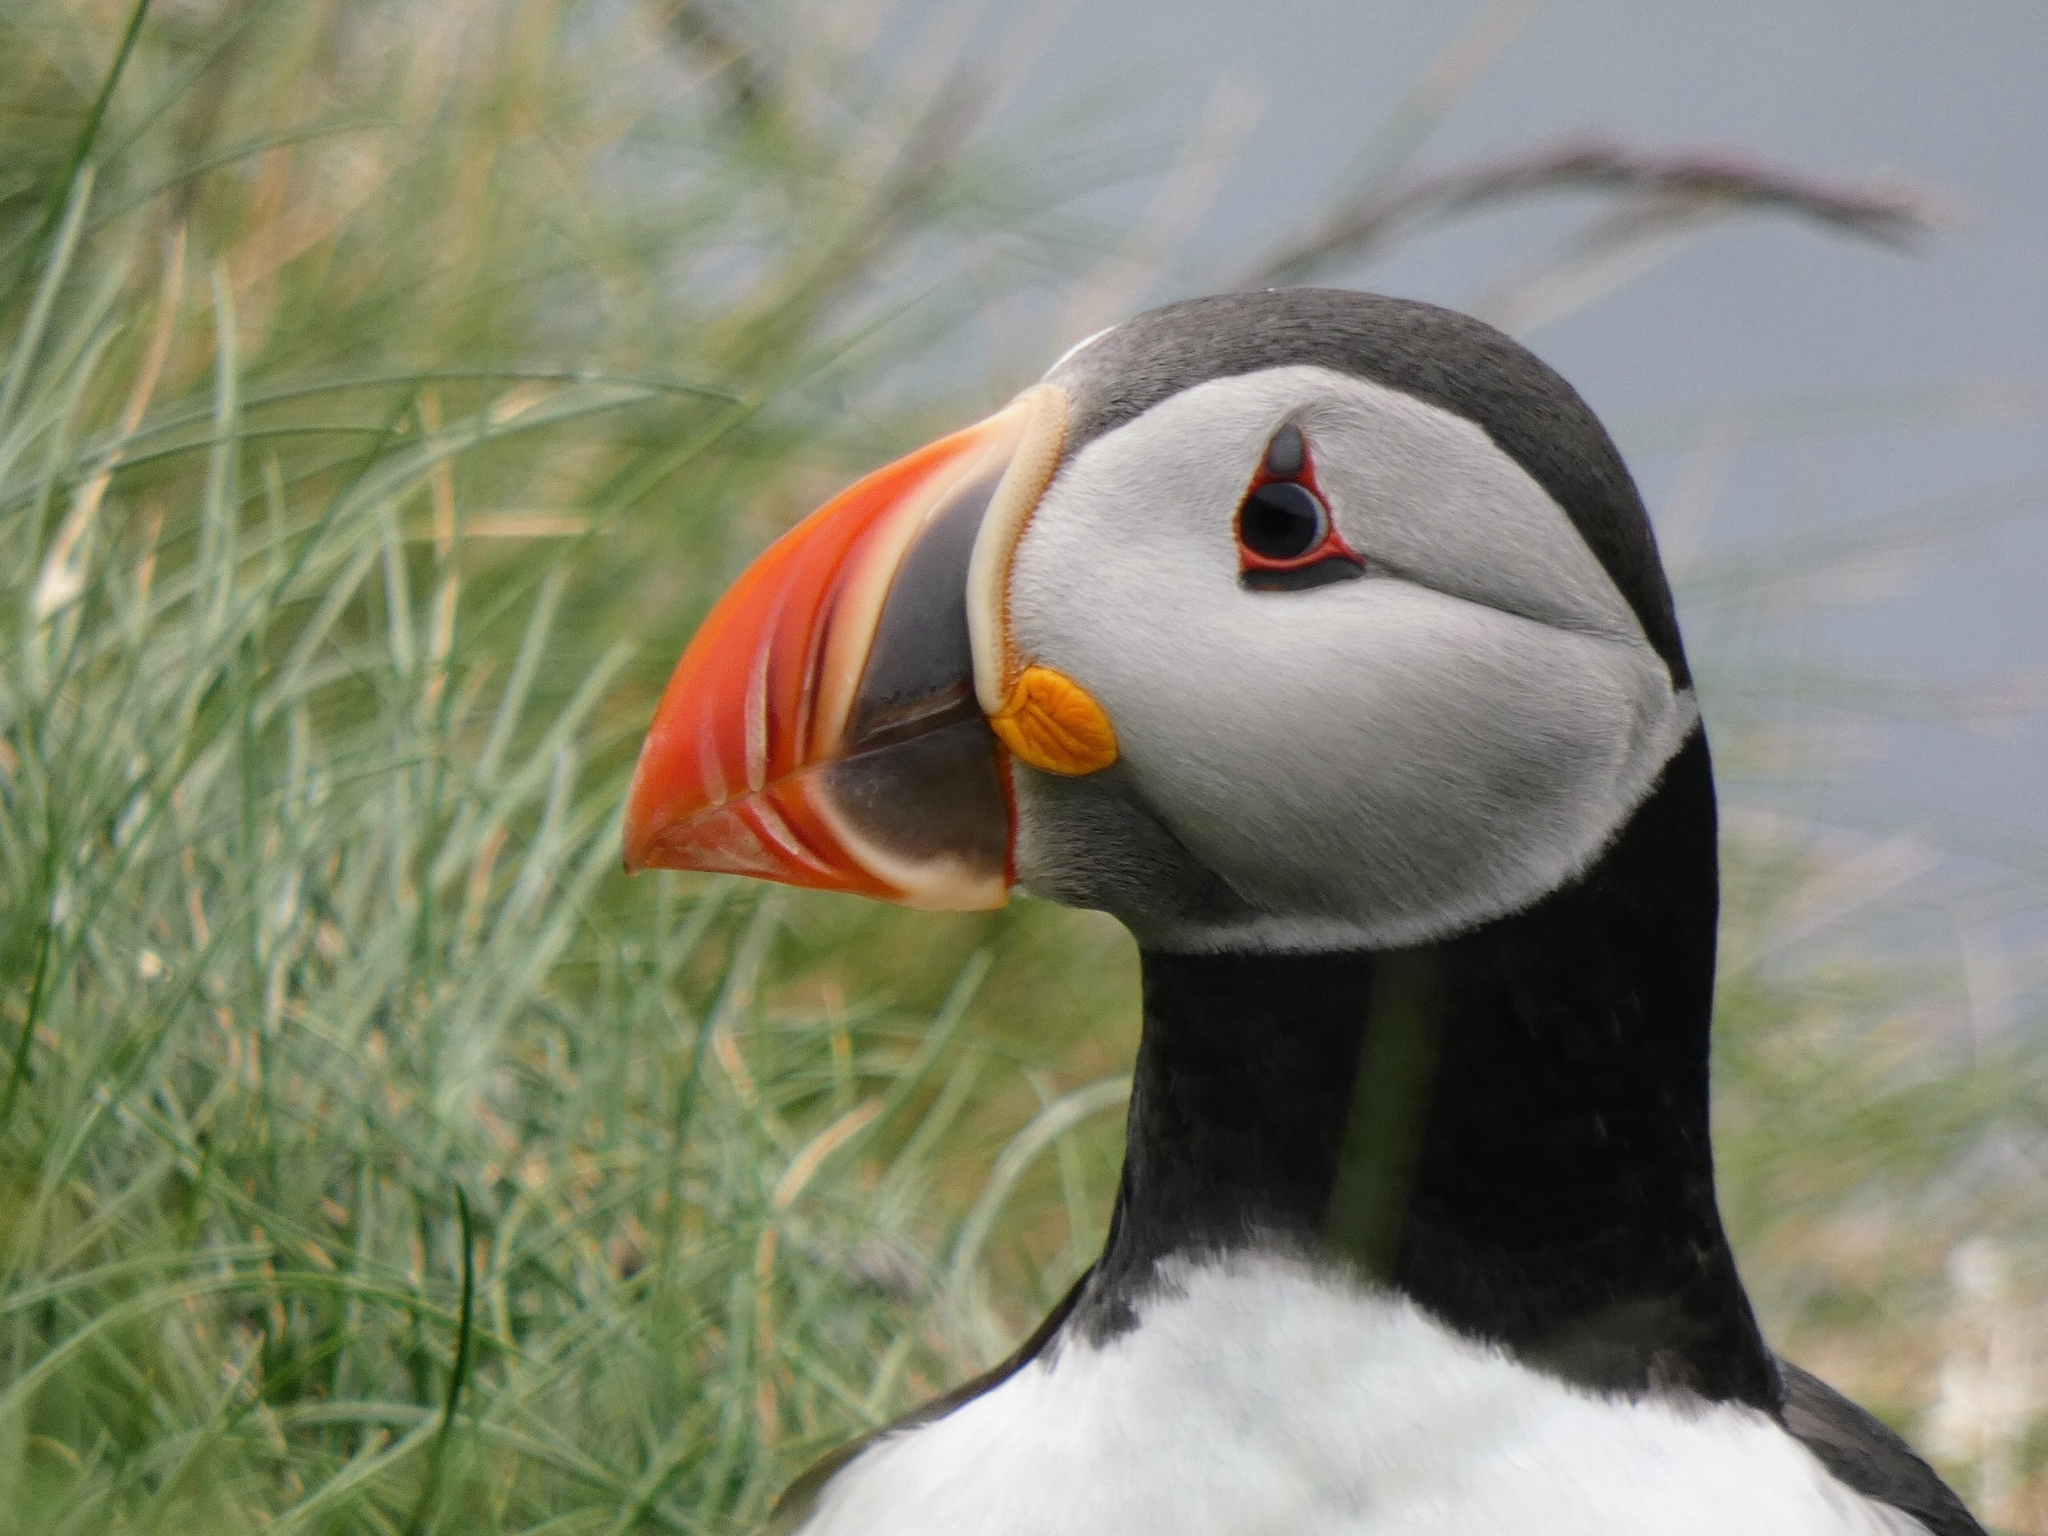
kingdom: Animalia
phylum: Chordata
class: Aves
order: Charadriiformes
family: Alcidae
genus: Fratercula
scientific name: Fratercula arctica
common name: Atlantic puffin
